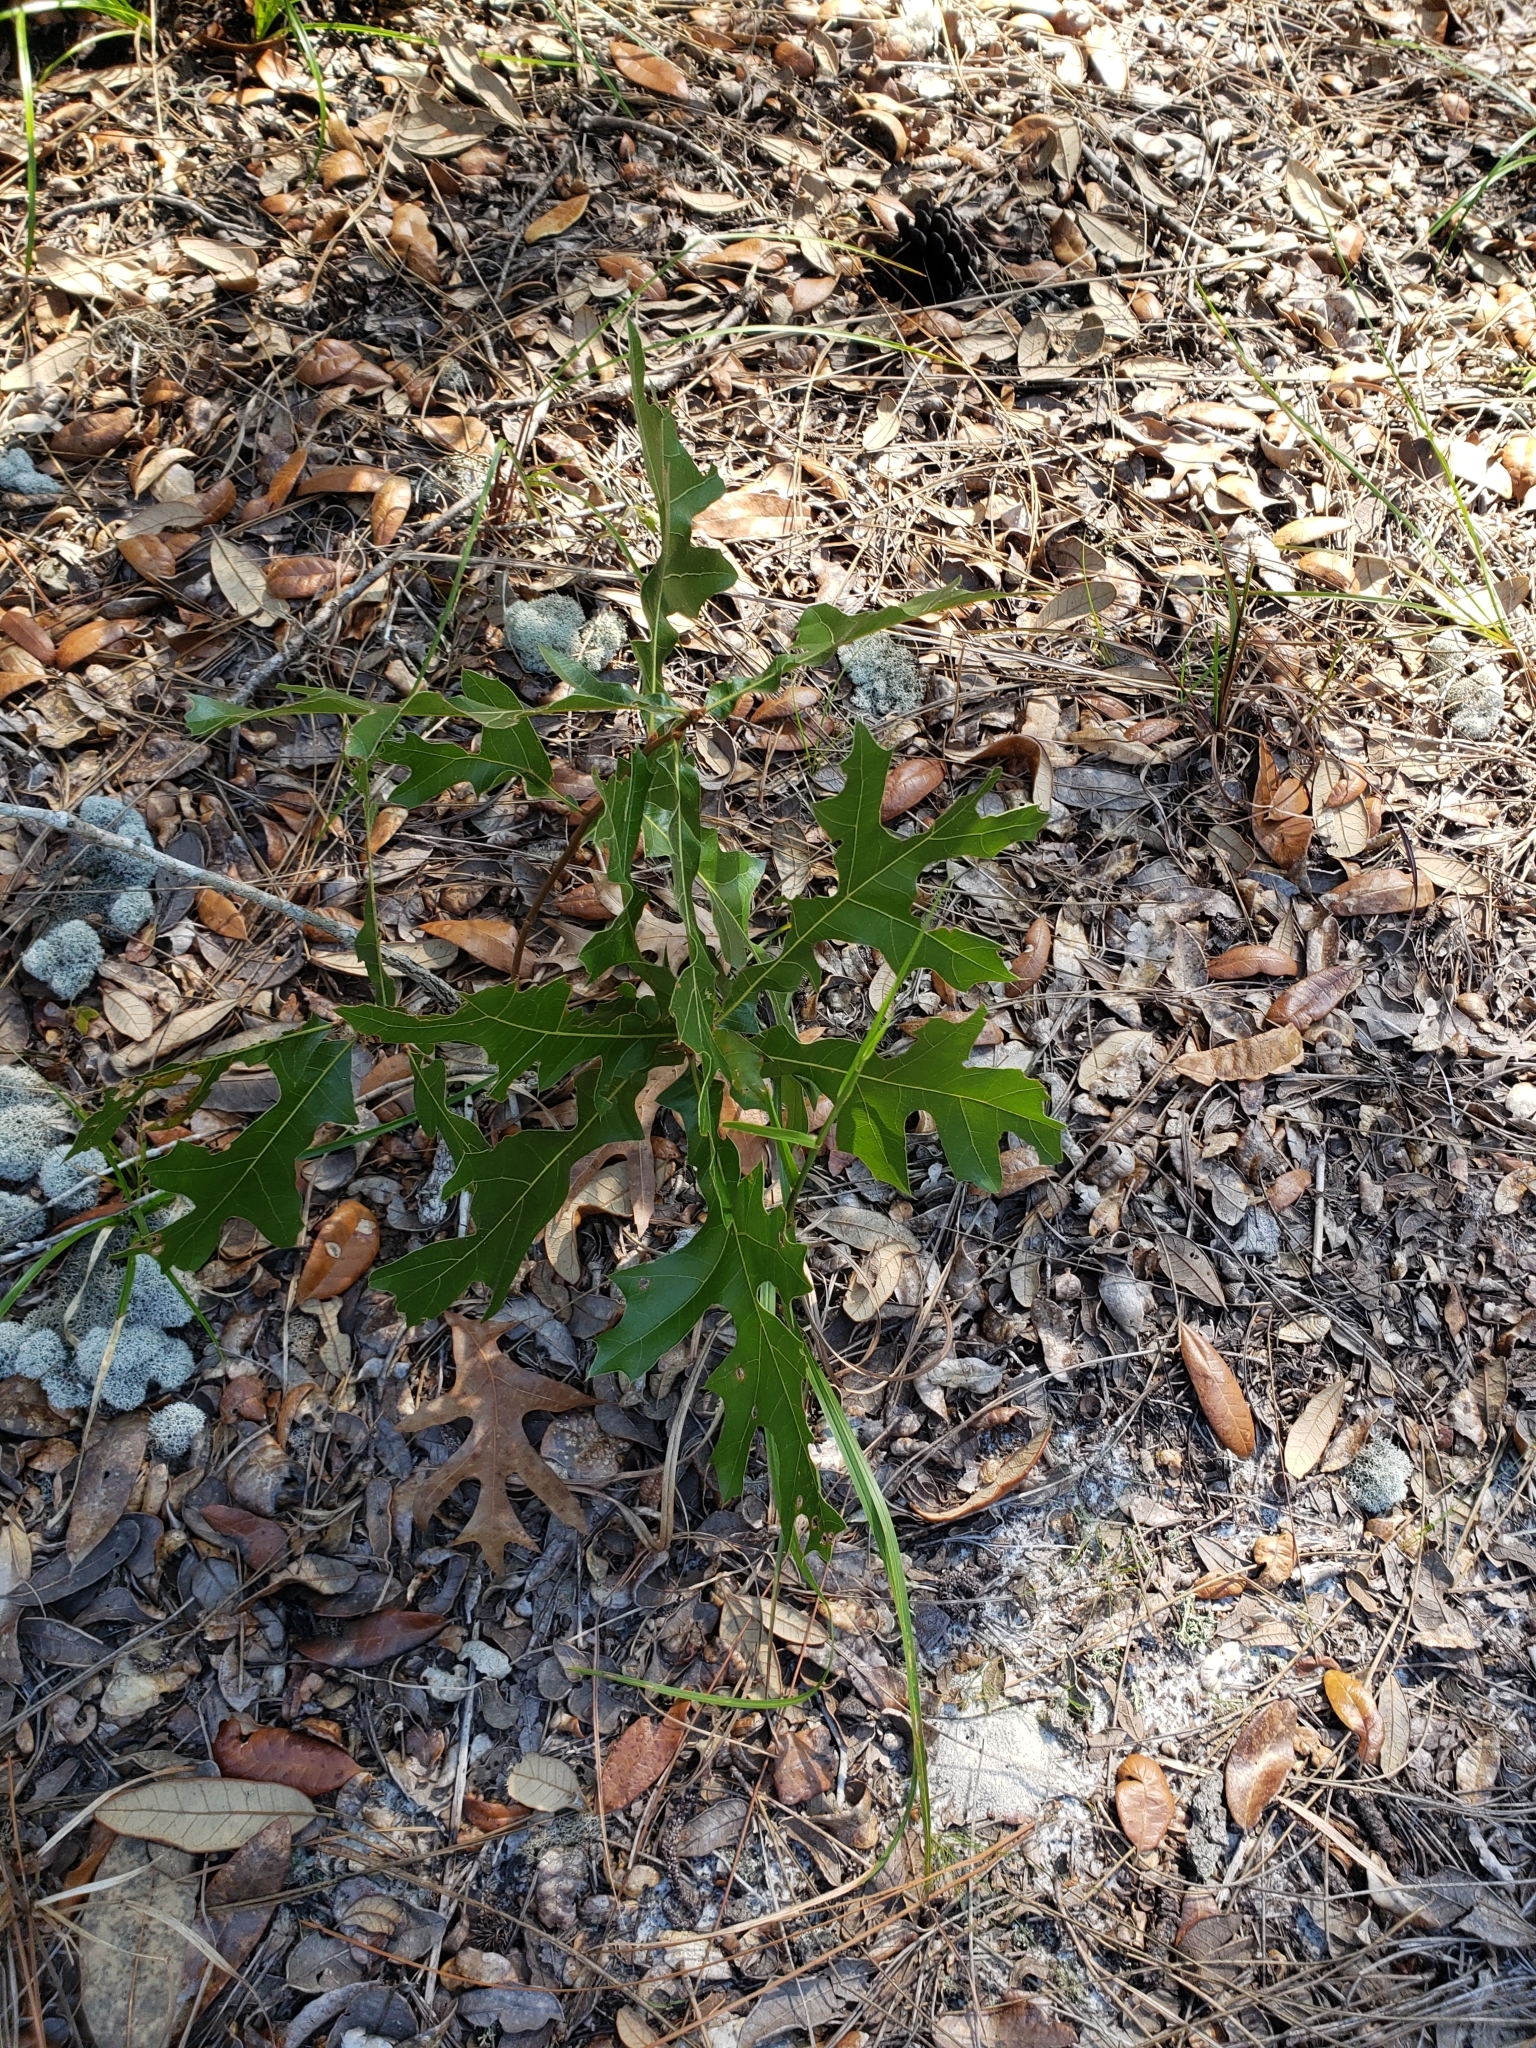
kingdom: Plantae
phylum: Tracheophyta
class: Magnoliopsida
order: Fagales
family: Fagaceae
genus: Quercus
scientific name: Quercus laevis
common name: Turkey oak
